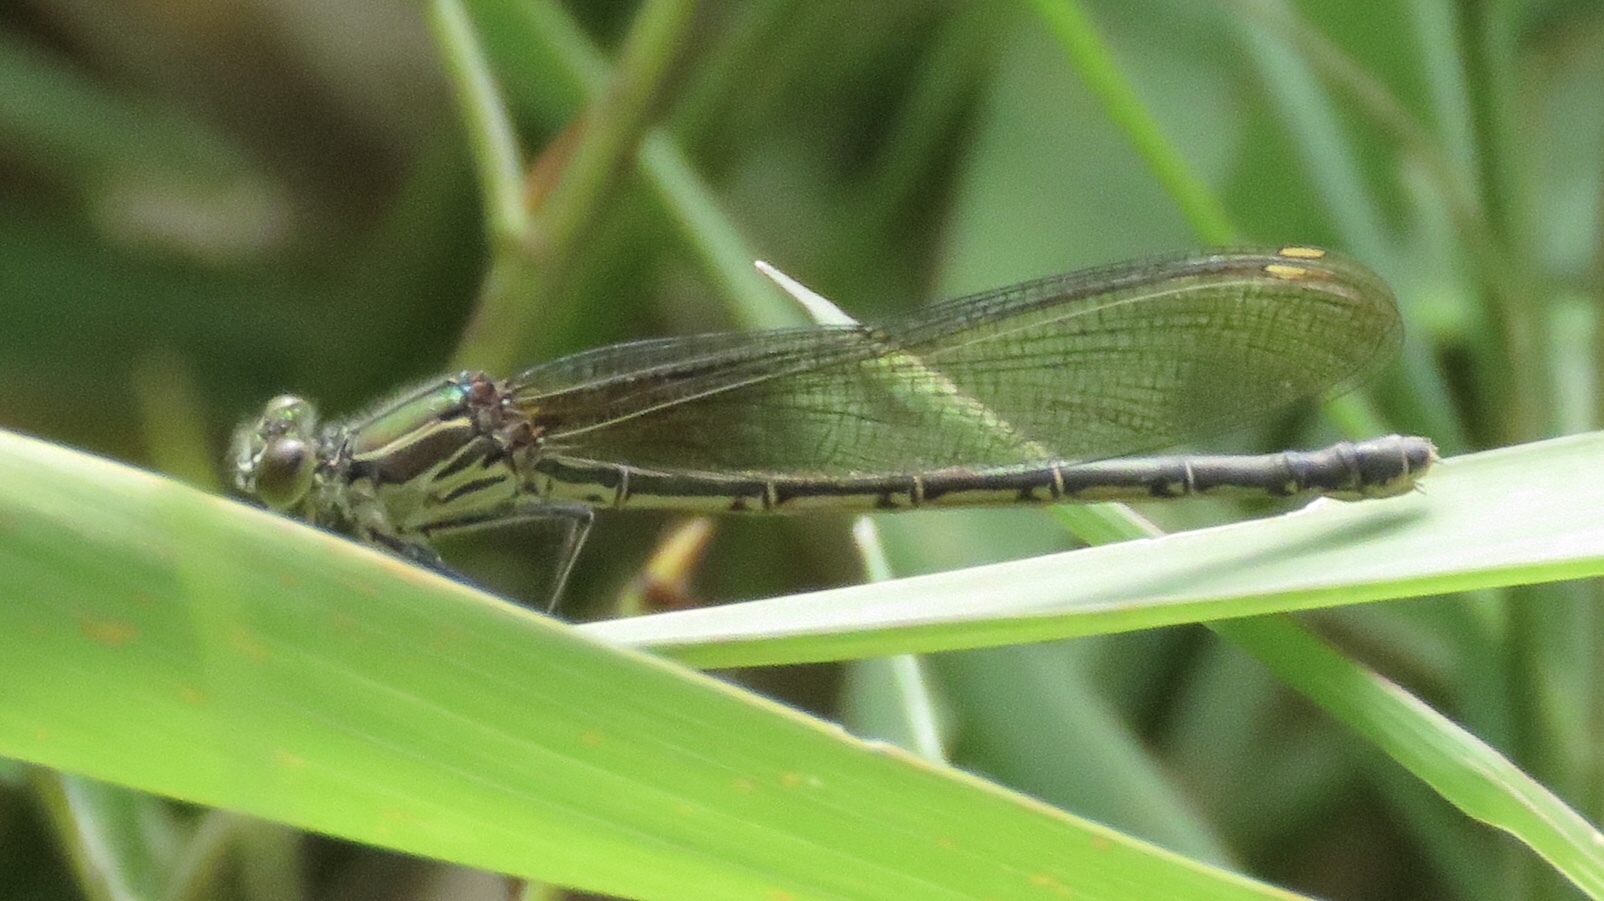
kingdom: Animalia
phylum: Arthropoda
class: Insecta
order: Odonata
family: Calopterygidae
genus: Hetaerina
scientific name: Hetaerina americana
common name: American rubyspot
